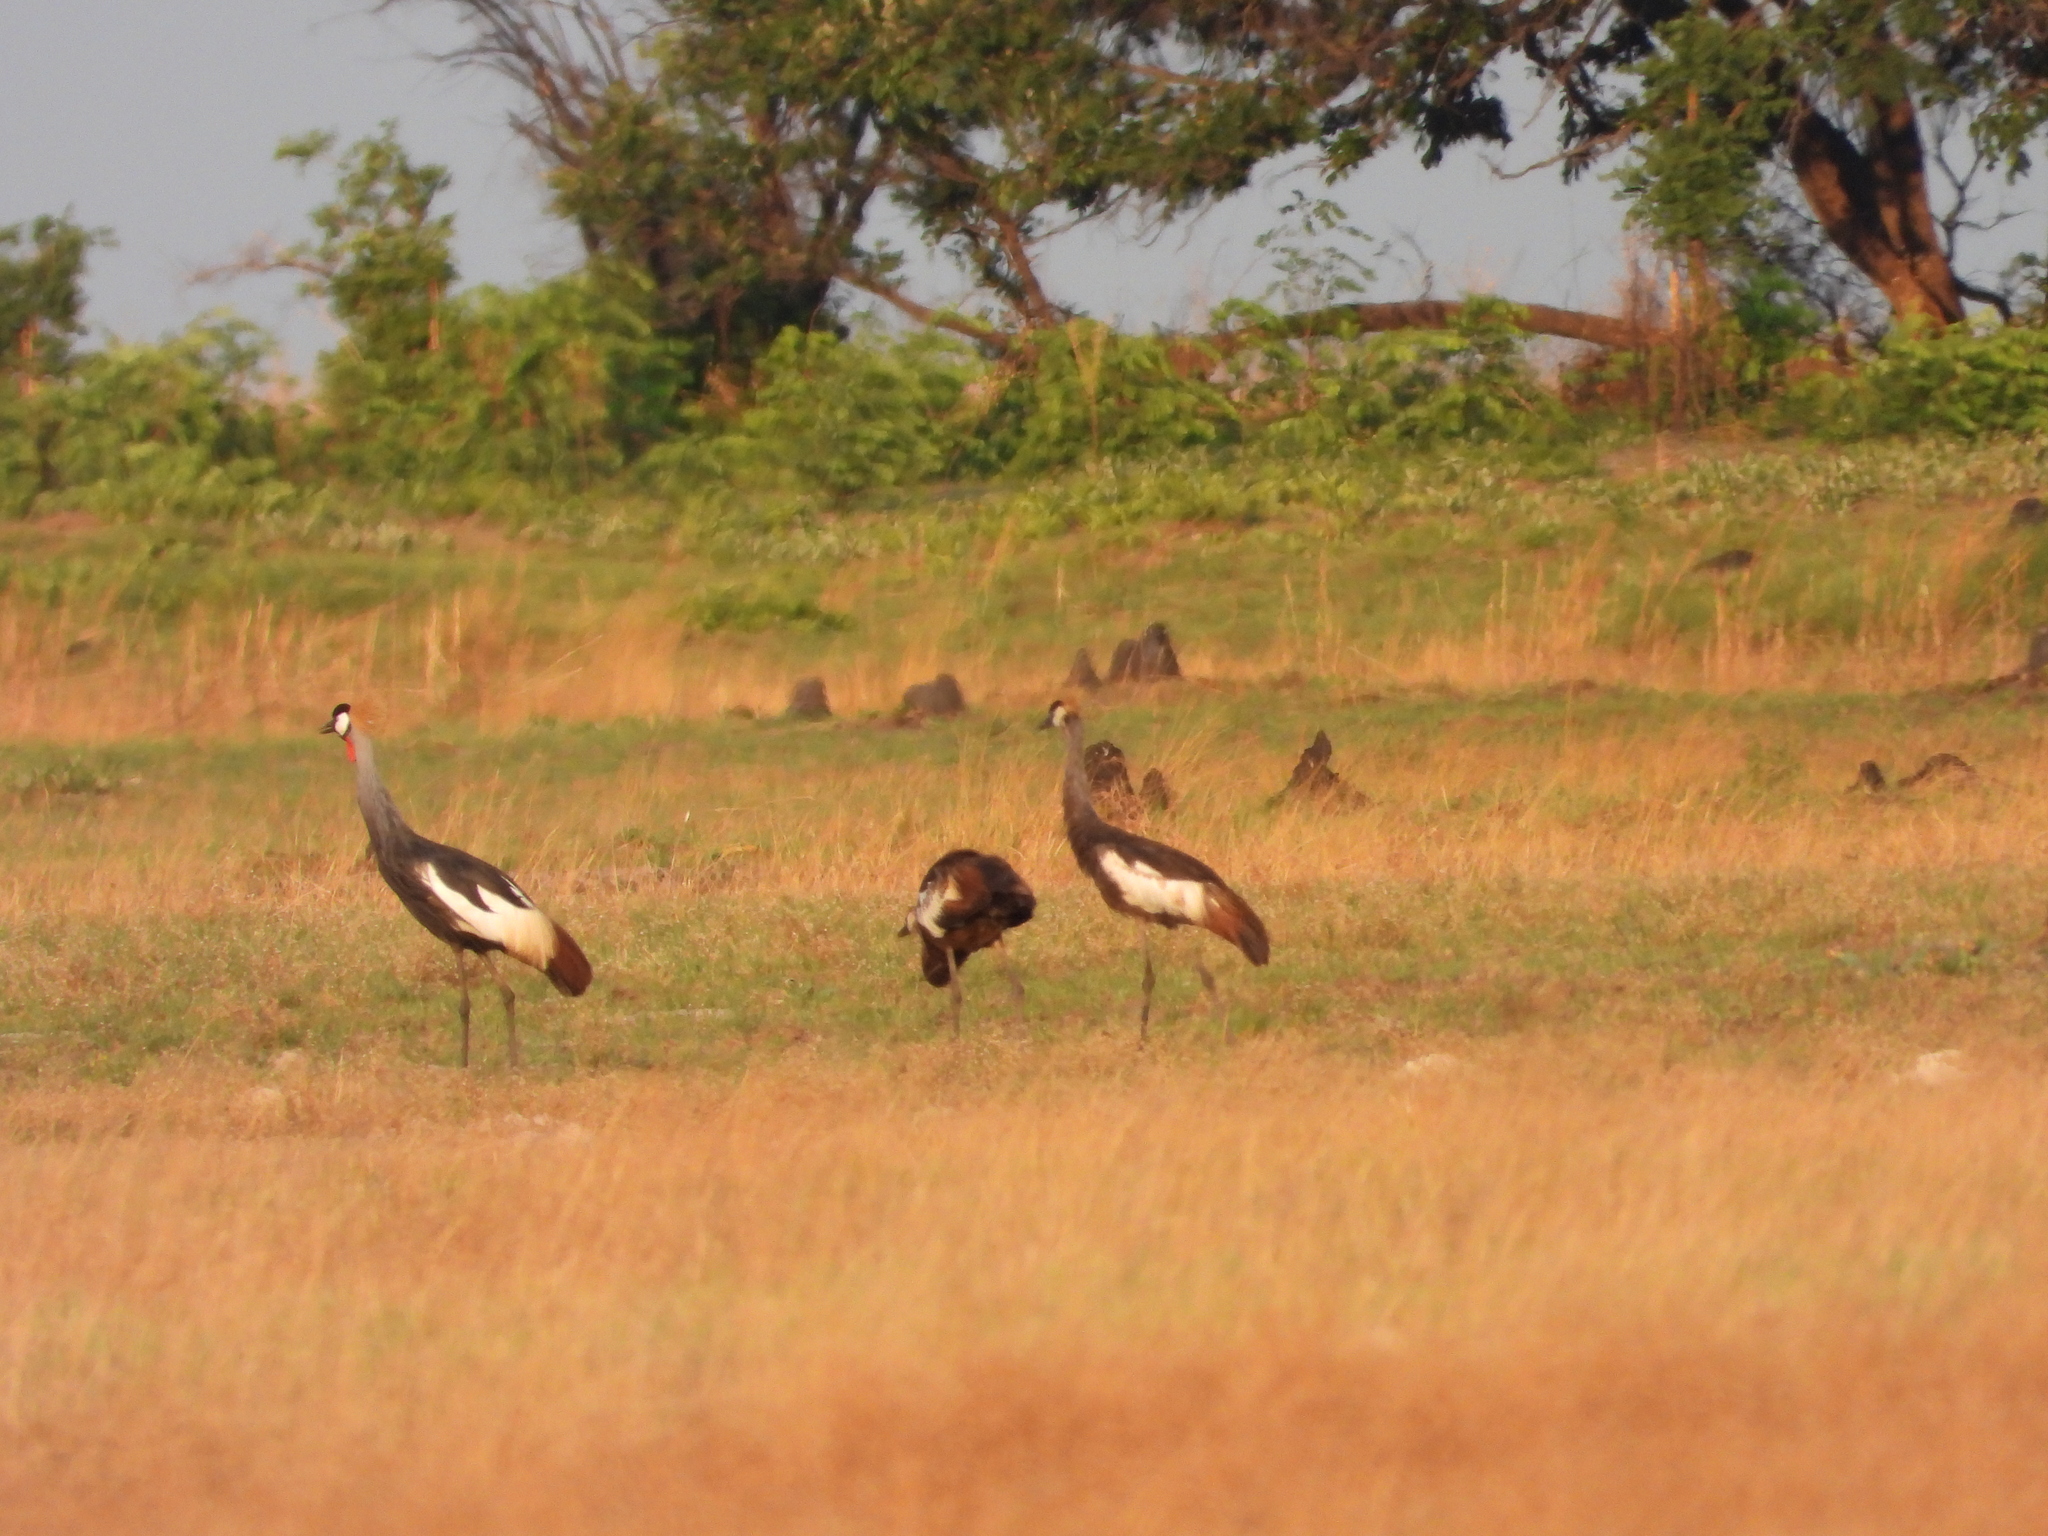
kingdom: Animalia
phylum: Chordata
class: Aves
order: Gruiformes
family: Gruidae
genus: Balearica
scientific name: Balearica regulorum
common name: Grey crowned crane
